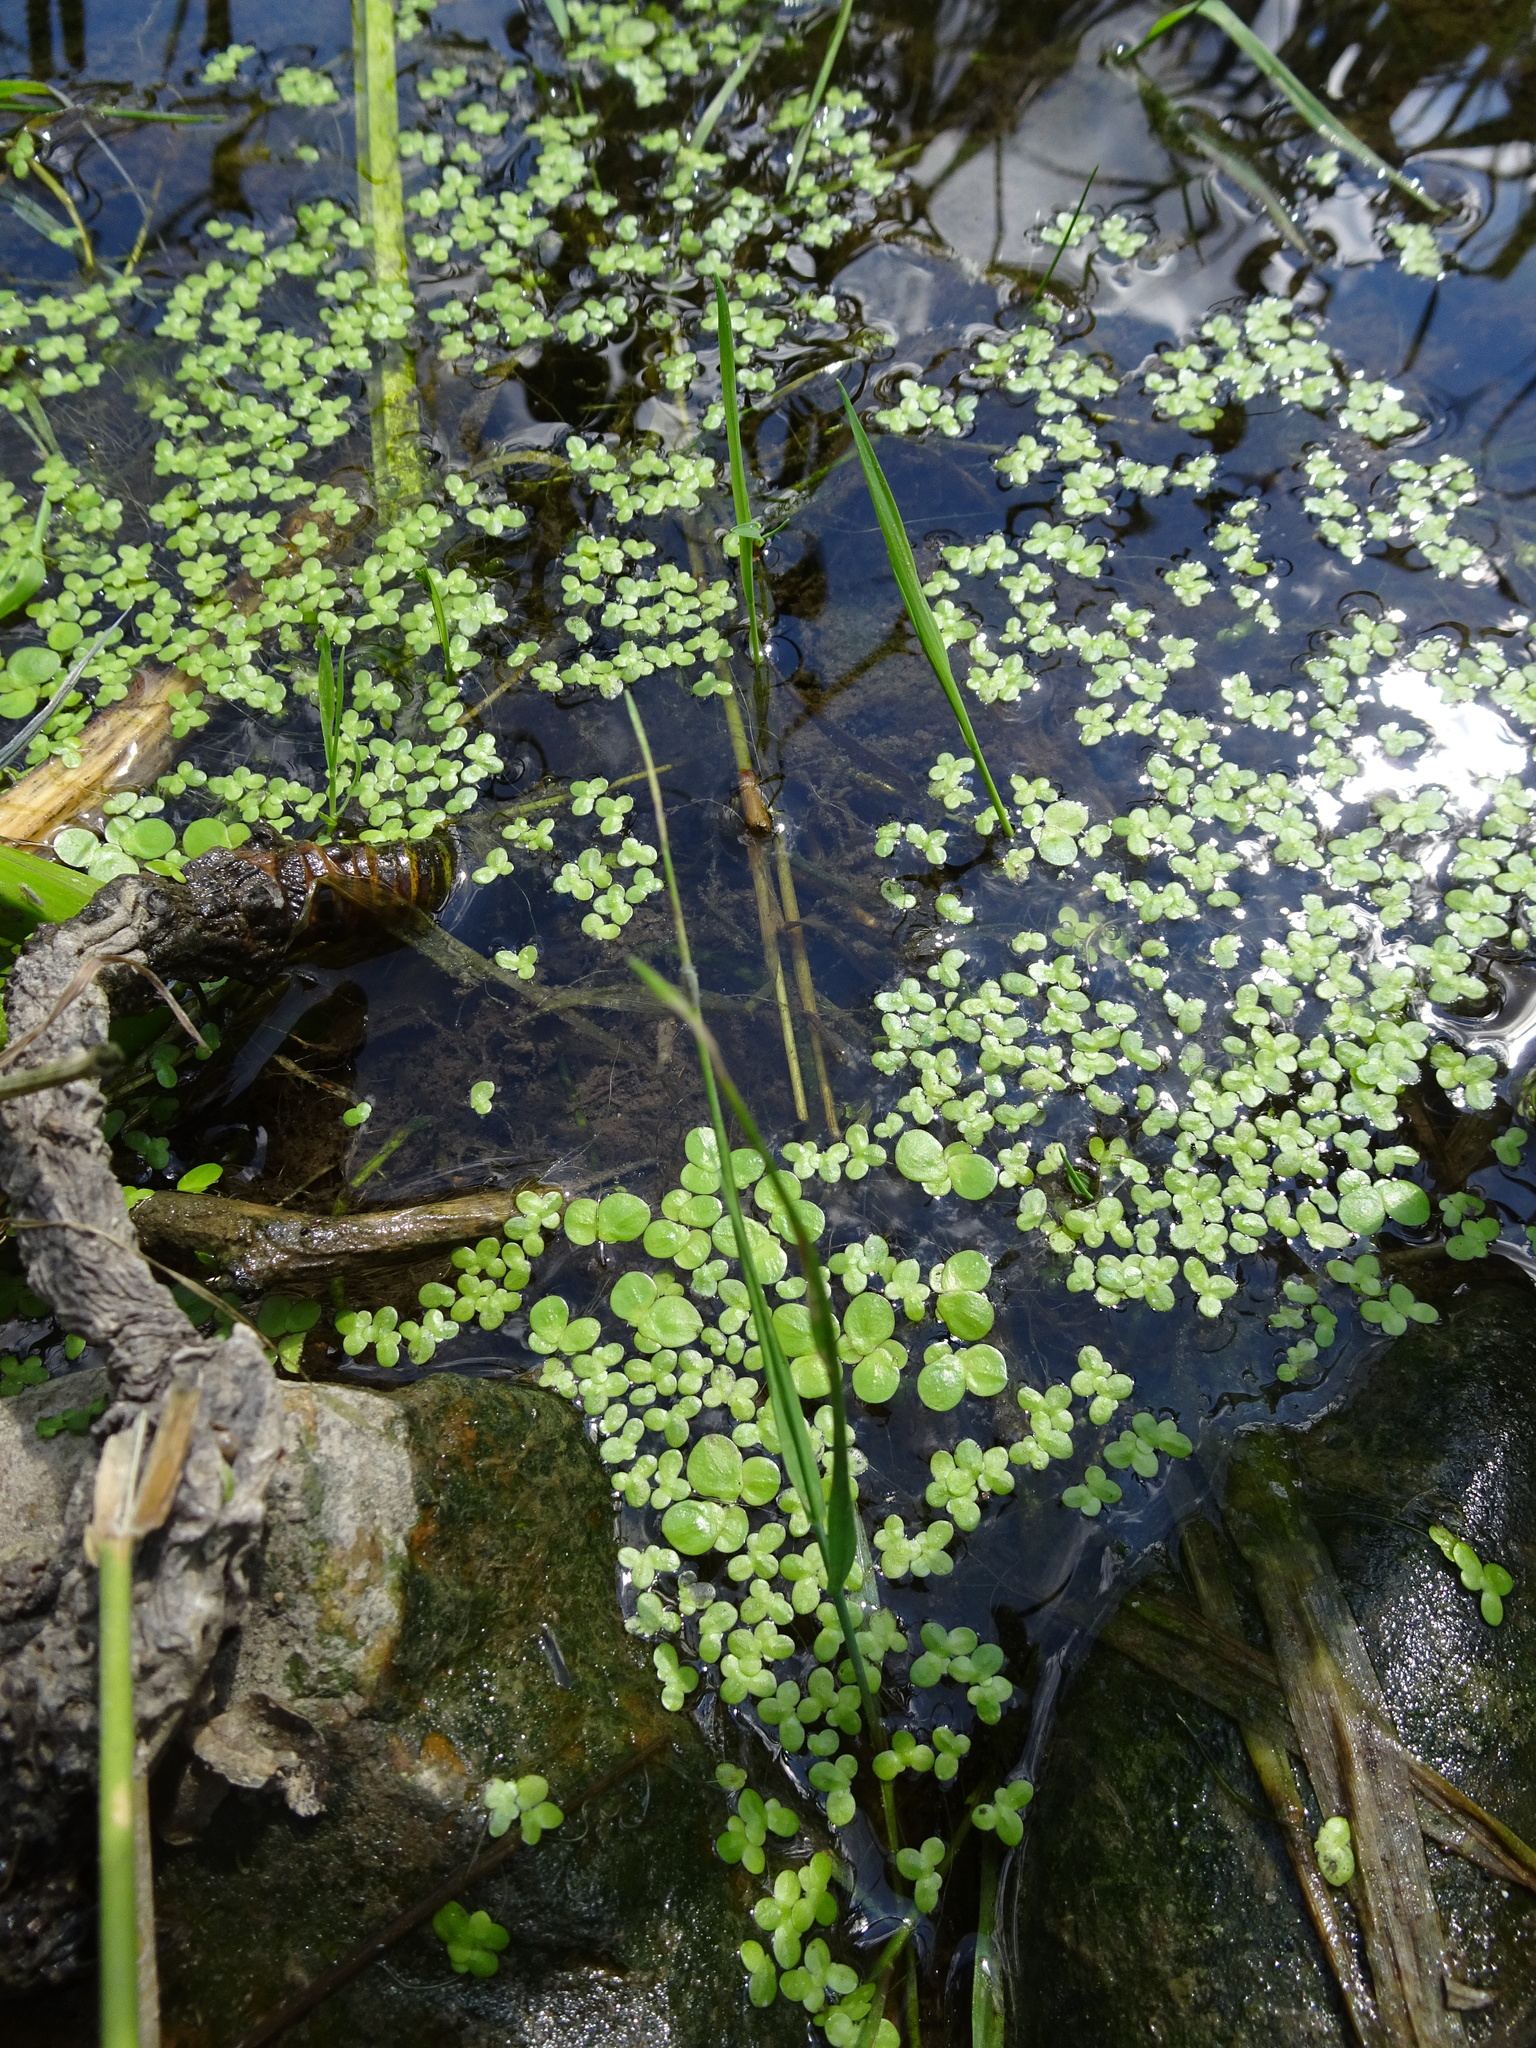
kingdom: Plantae
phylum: Tracheophyta
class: Liliopsida
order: Alismatales
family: Araceae
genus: Spirodela
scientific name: Spirodela polyrhiza
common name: Great duckweed
